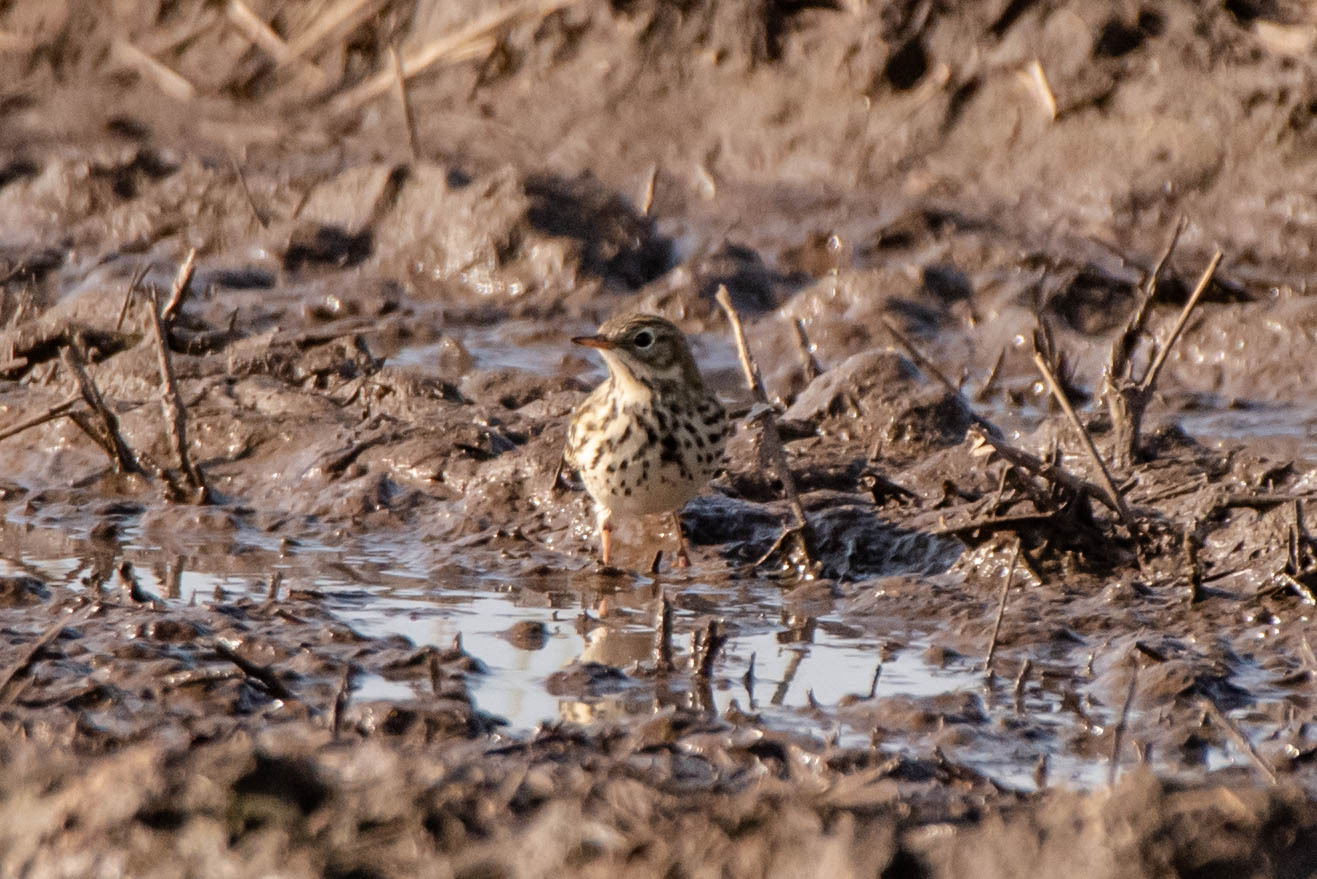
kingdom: Animalia
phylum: Chordata
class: Aves
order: Passeriformes
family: Motacillidae
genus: Anthus
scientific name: Anthus pratensis
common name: Meadow pipit
